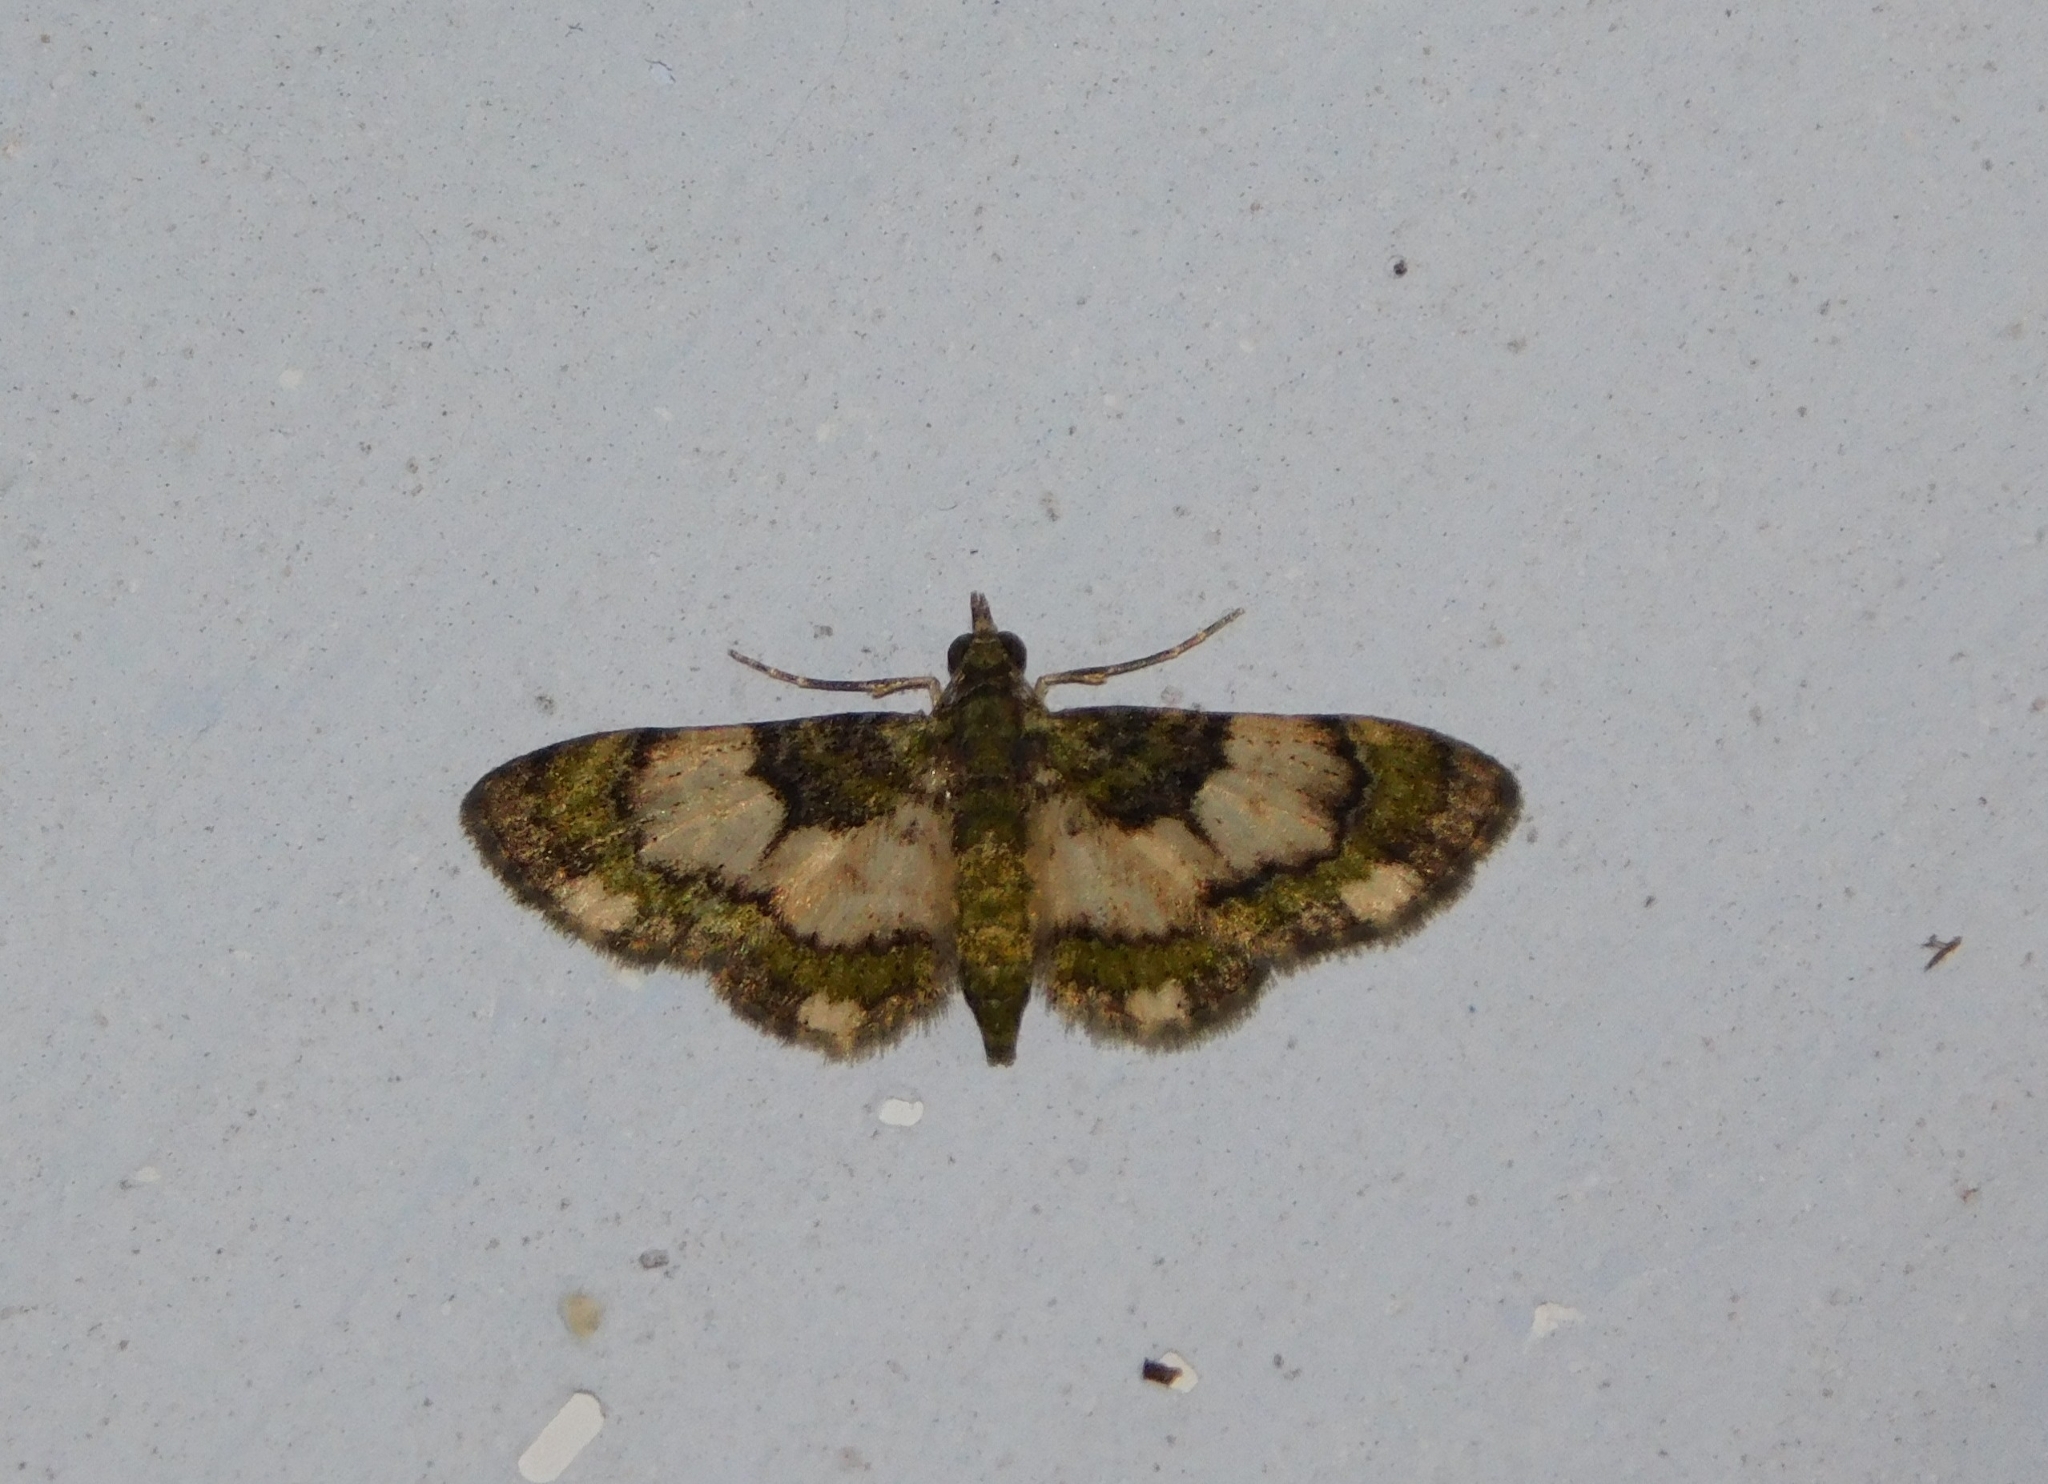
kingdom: Animalia
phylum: Arthropoda
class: Insecta
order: Lepidoptera
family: Geometridae
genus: Gymnoscelis
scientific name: Gymnoscelis roseifascia
